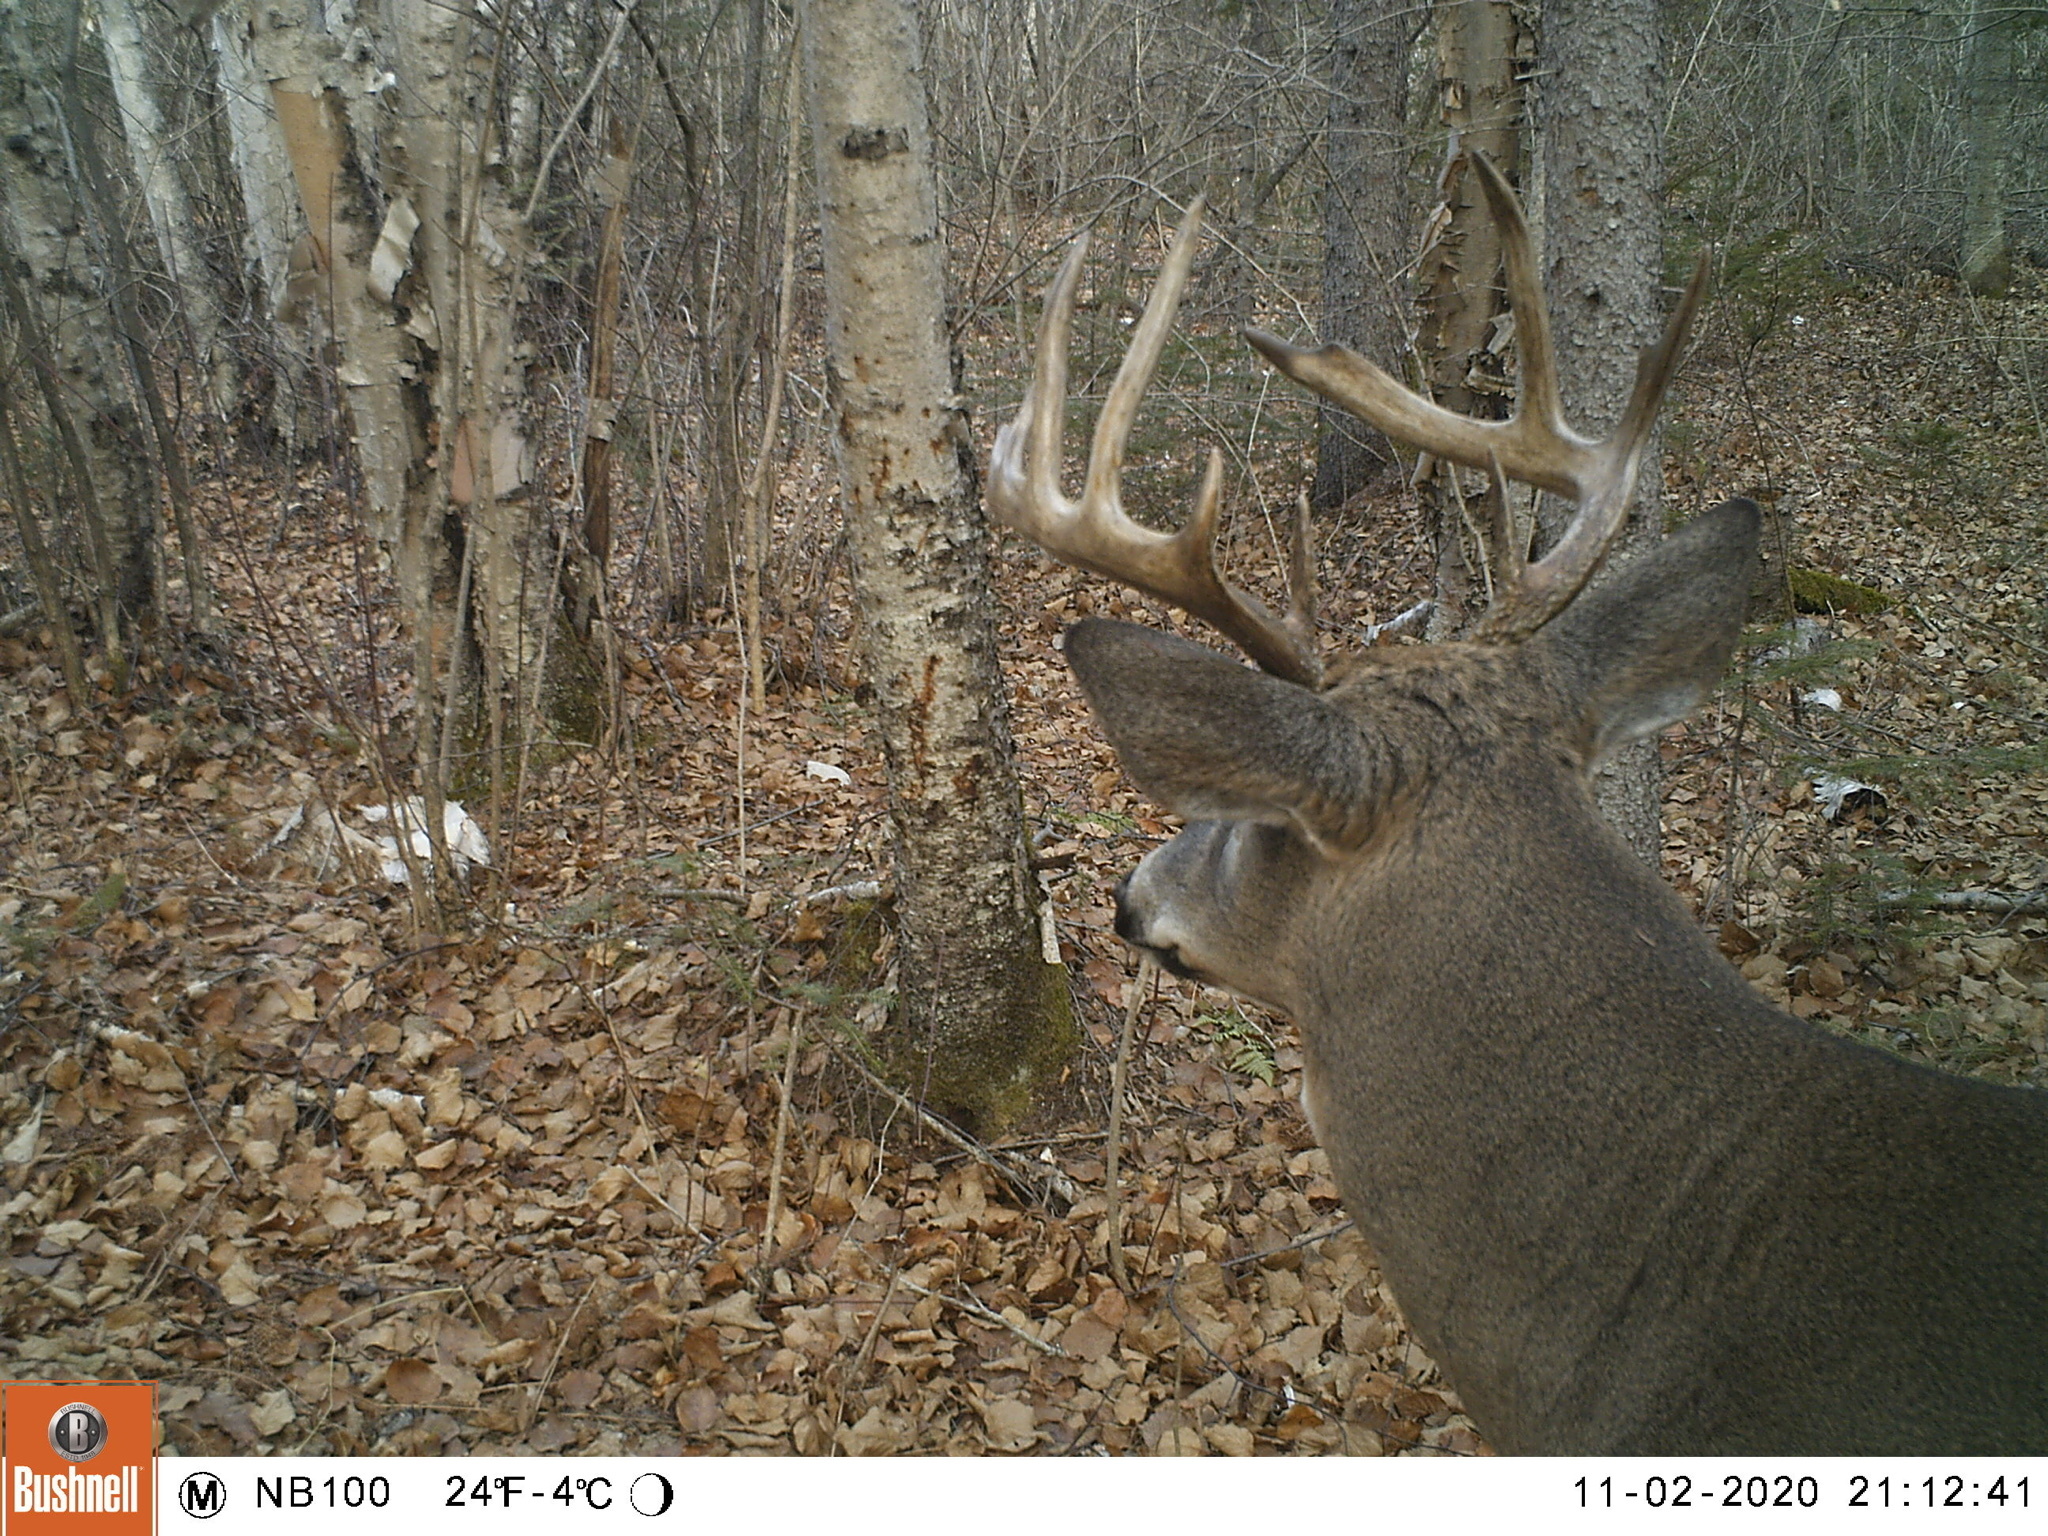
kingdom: Animalia
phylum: Chordata
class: Mammalia
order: Artiodactyla
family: Cervidae
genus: Odocoileus
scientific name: Odocoileus virginianus
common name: White-tailed deer
